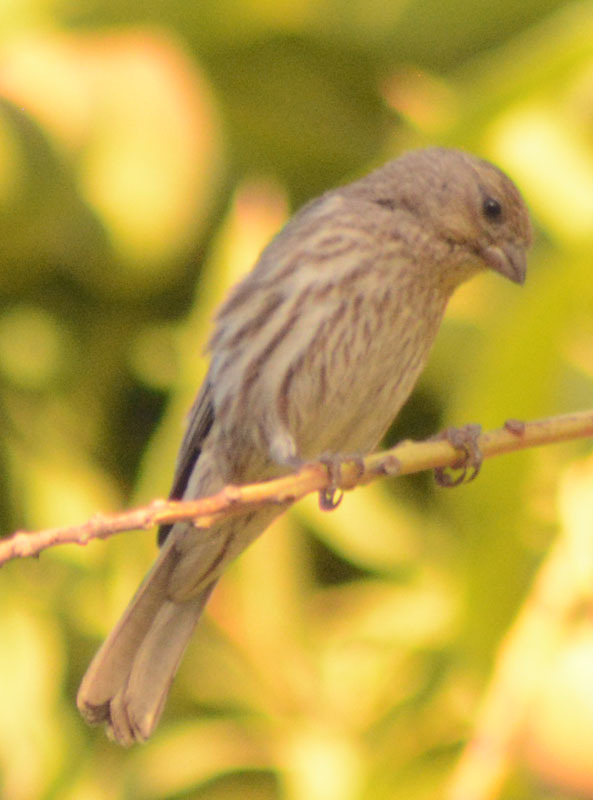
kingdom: Animalia
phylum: Chordata
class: Aves
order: Passeriformes
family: Fringillidae
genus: Haemorhous
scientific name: Haemorhous mexicanus
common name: House finch
